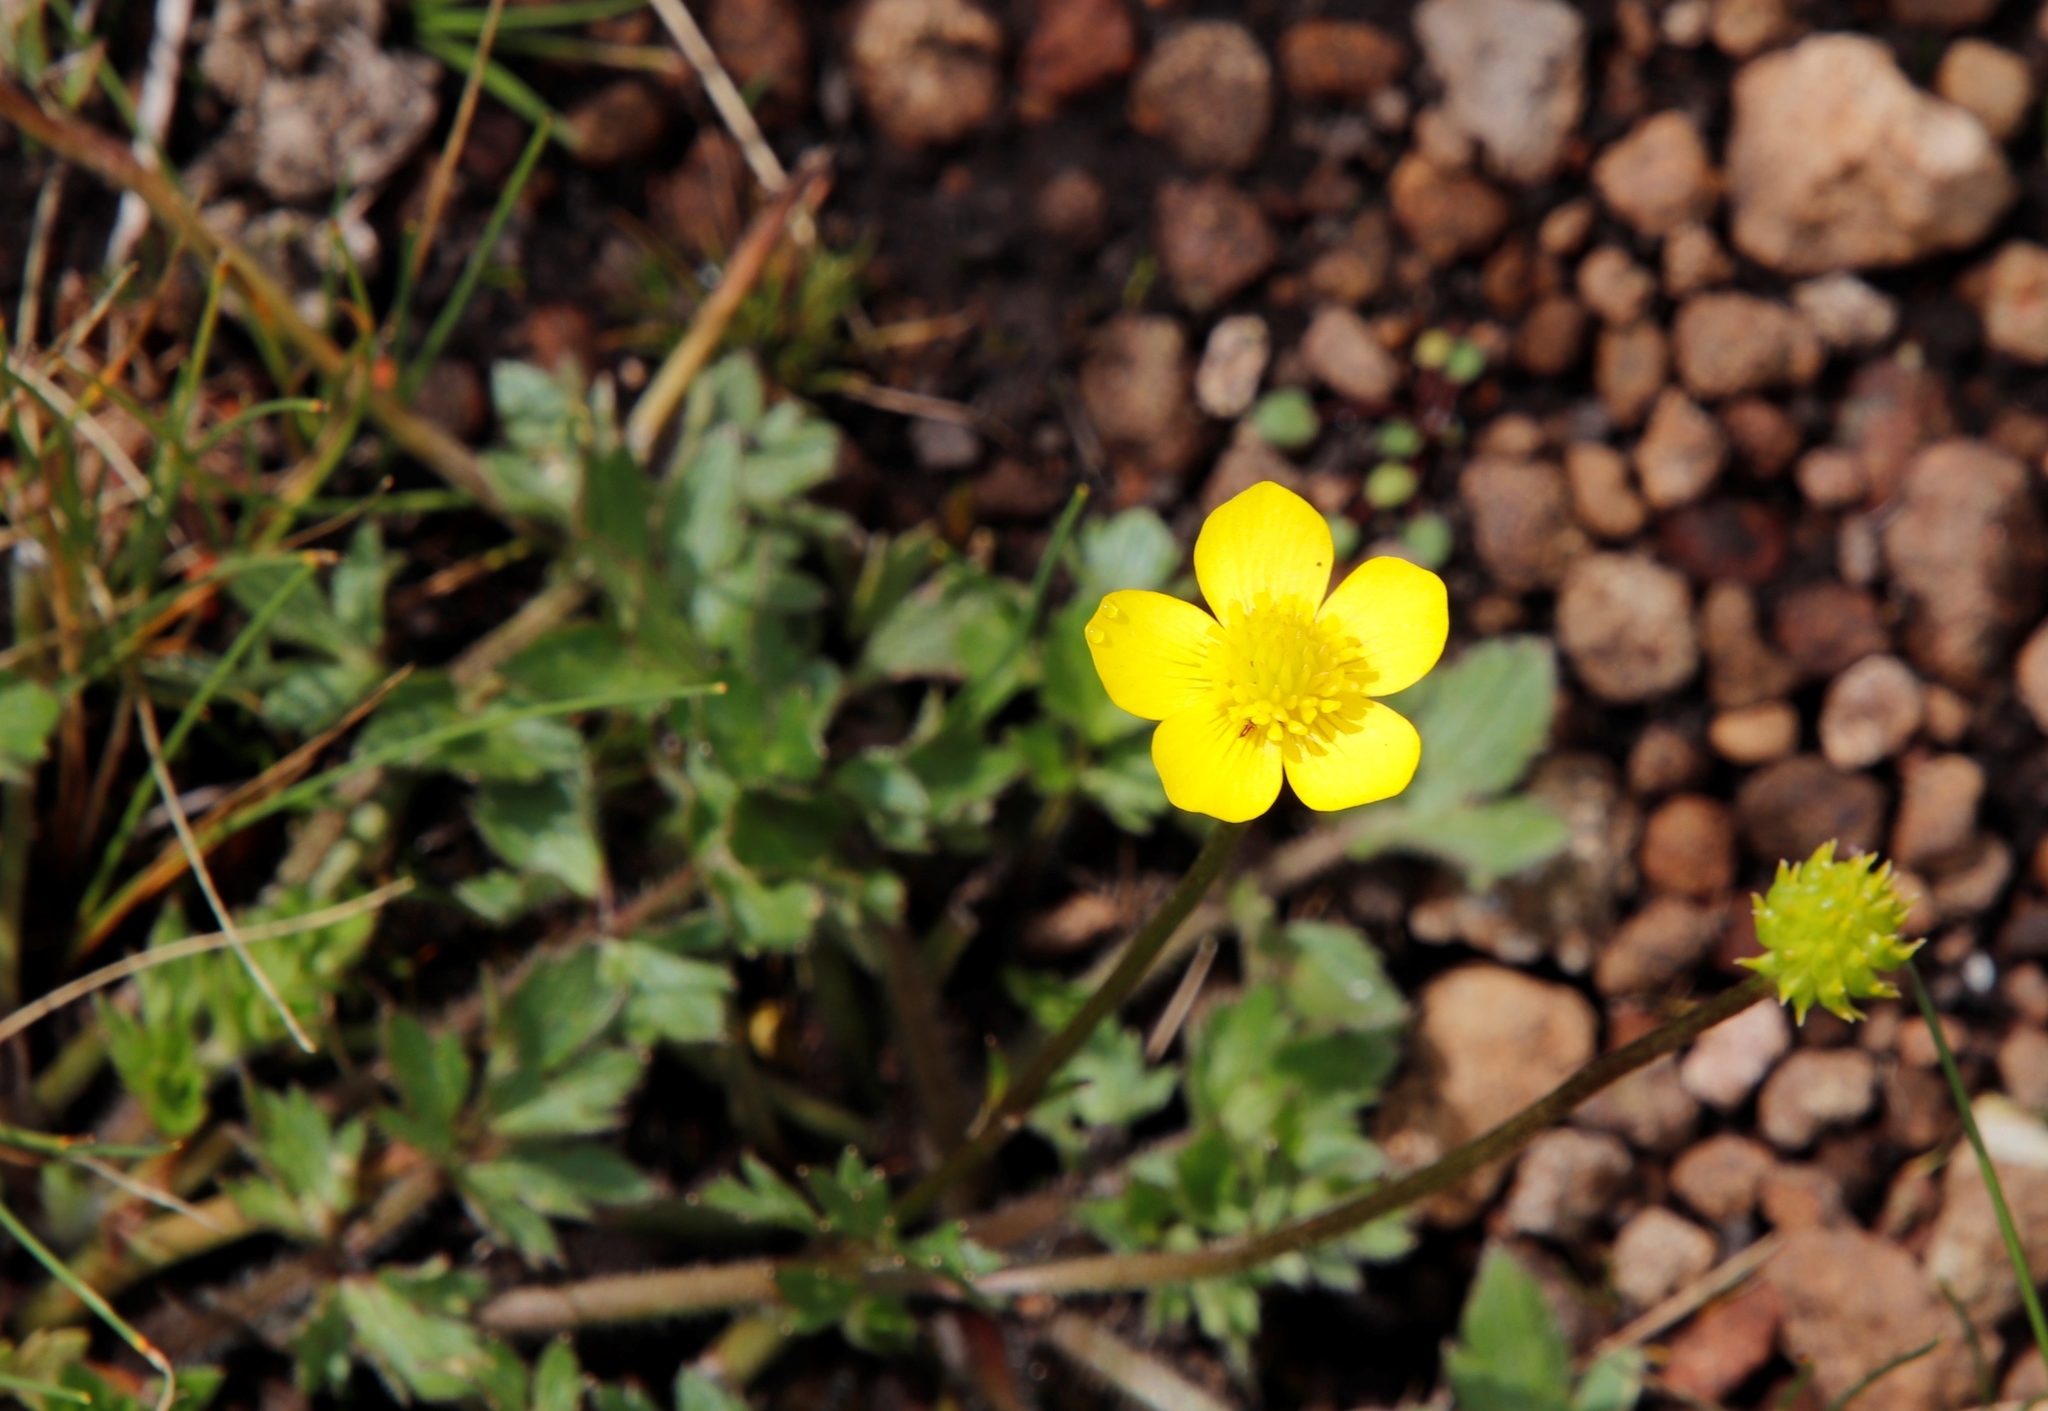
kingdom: Plantae
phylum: Tracheophyta
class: Magnoliopsida
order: Ranunculales
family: Ranunculaceae
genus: Ranunculus
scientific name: Ranunculus multifidus
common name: Wild buttercup
